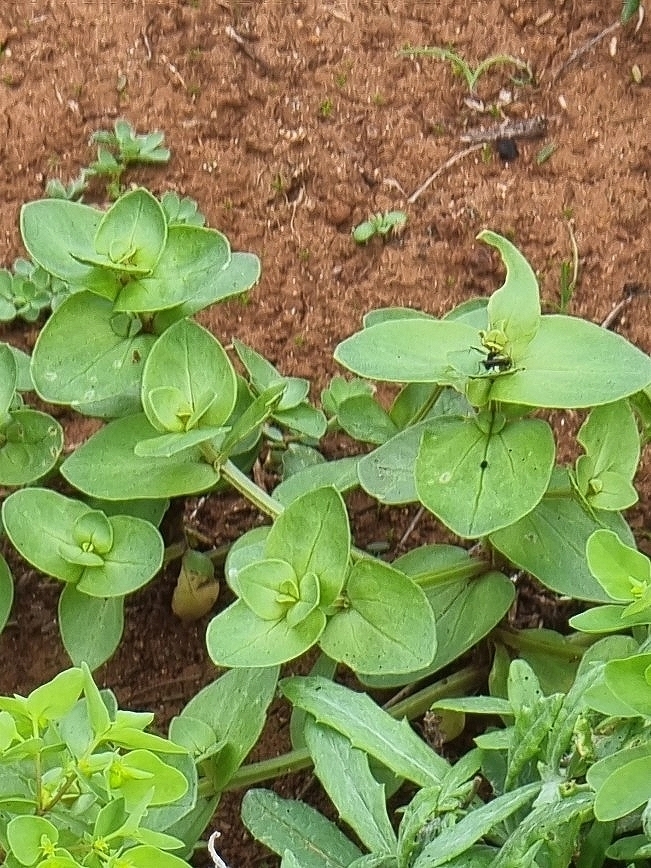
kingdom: Plantae
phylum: Tracheophyta
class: Magnoliopsida
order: Ericales
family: Primulaceae
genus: Lysimachia
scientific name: Lysimachia arvensis
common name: Scarlet pimpernel
